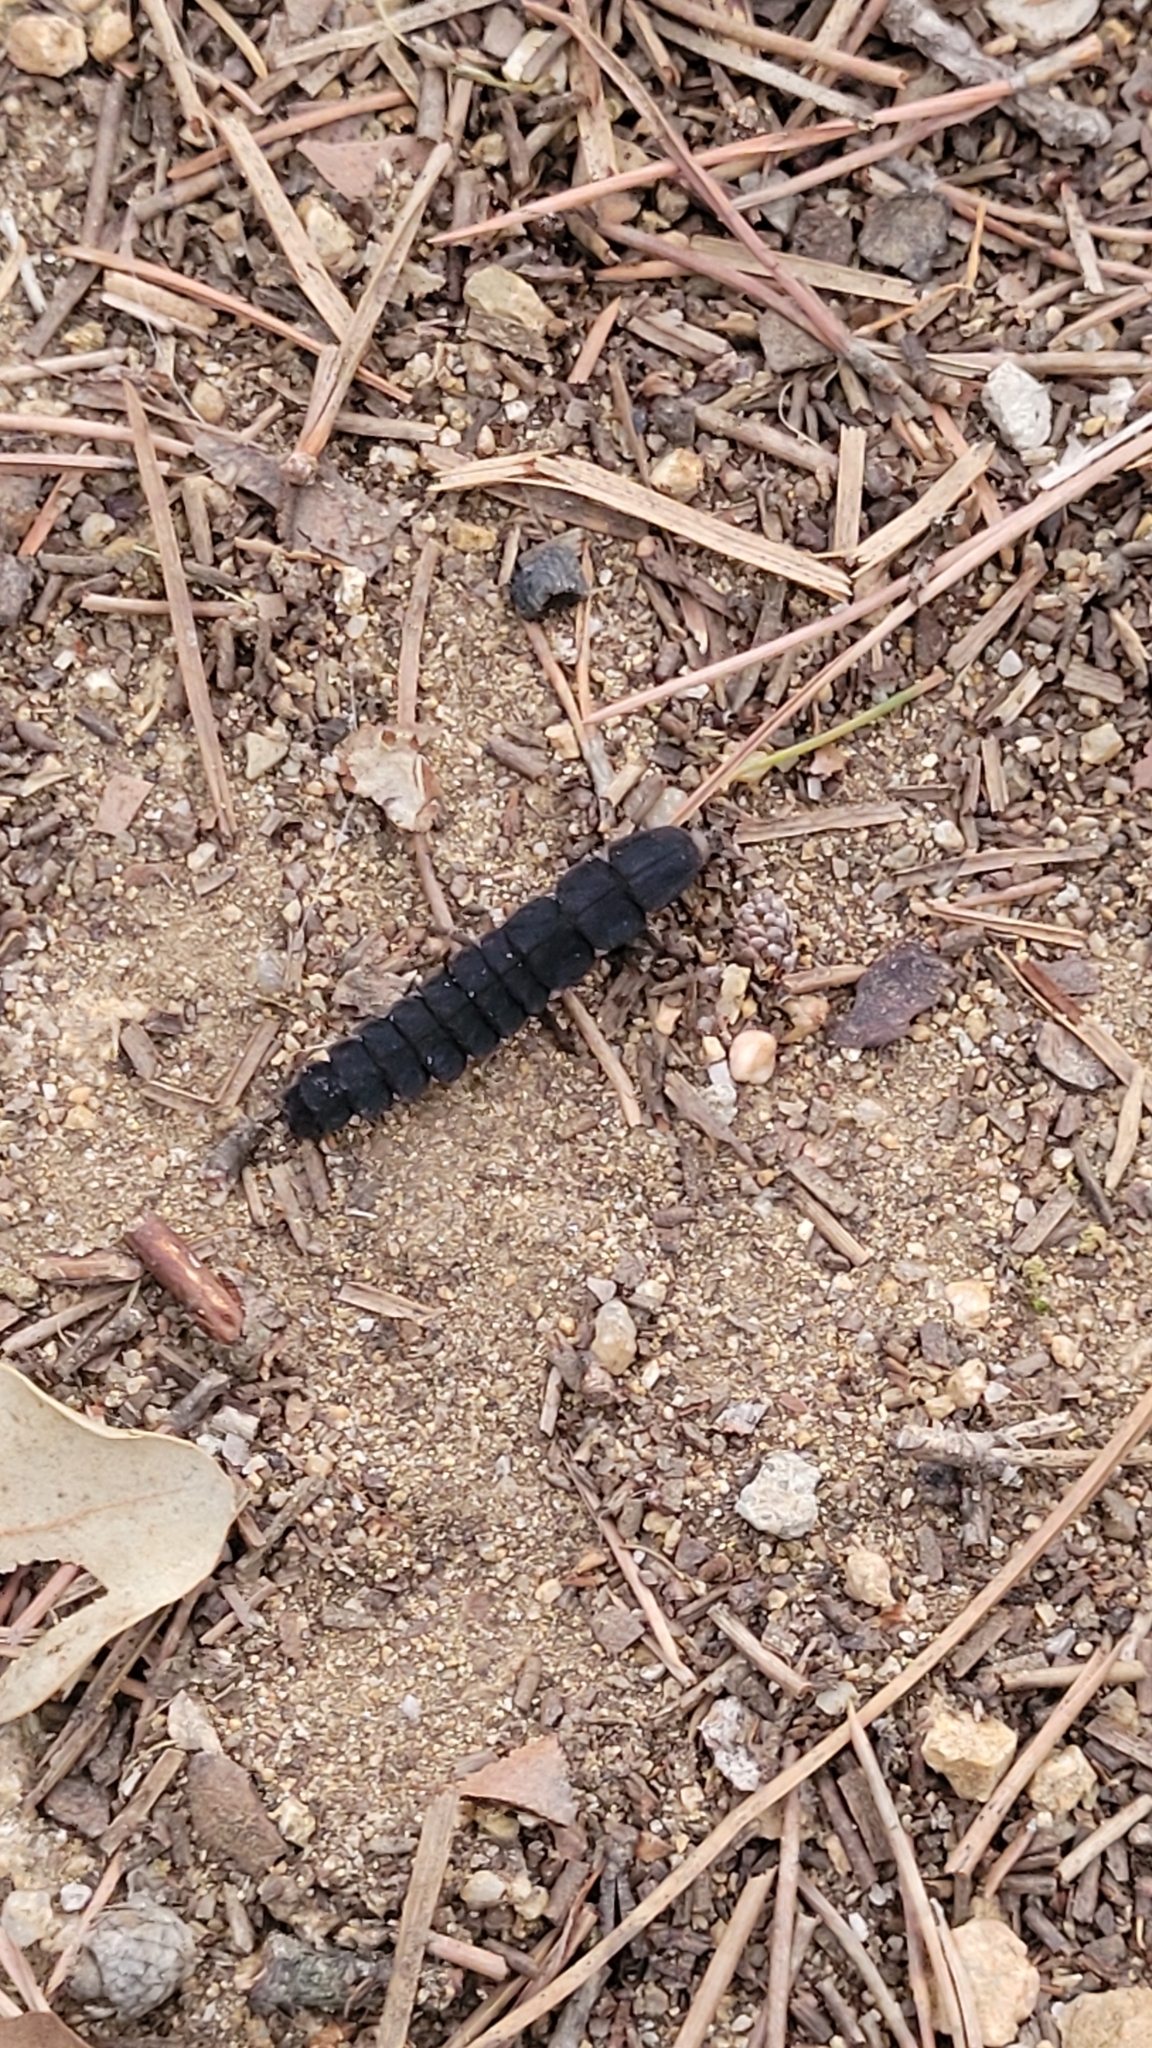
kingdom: Animalia
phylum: Arthropoda
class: Insecta
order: Coleoptera
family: Lampyridae
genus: Nyctophila
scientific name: Nyctophila reichii
